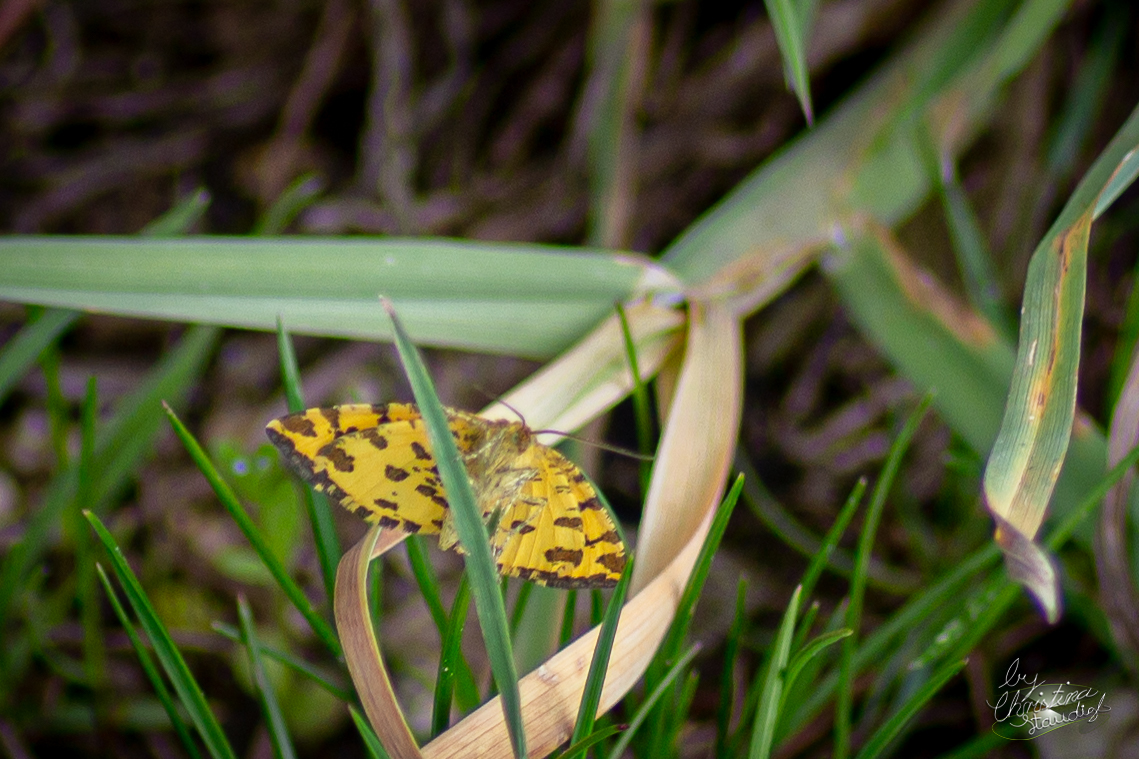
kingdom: Animalia
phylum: Arthropoda
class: Insecta
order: Lepidoptera
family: Geometridae
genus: Pseudopanthera
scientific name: Pseudopanthera macularia
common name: Speckled yellow
